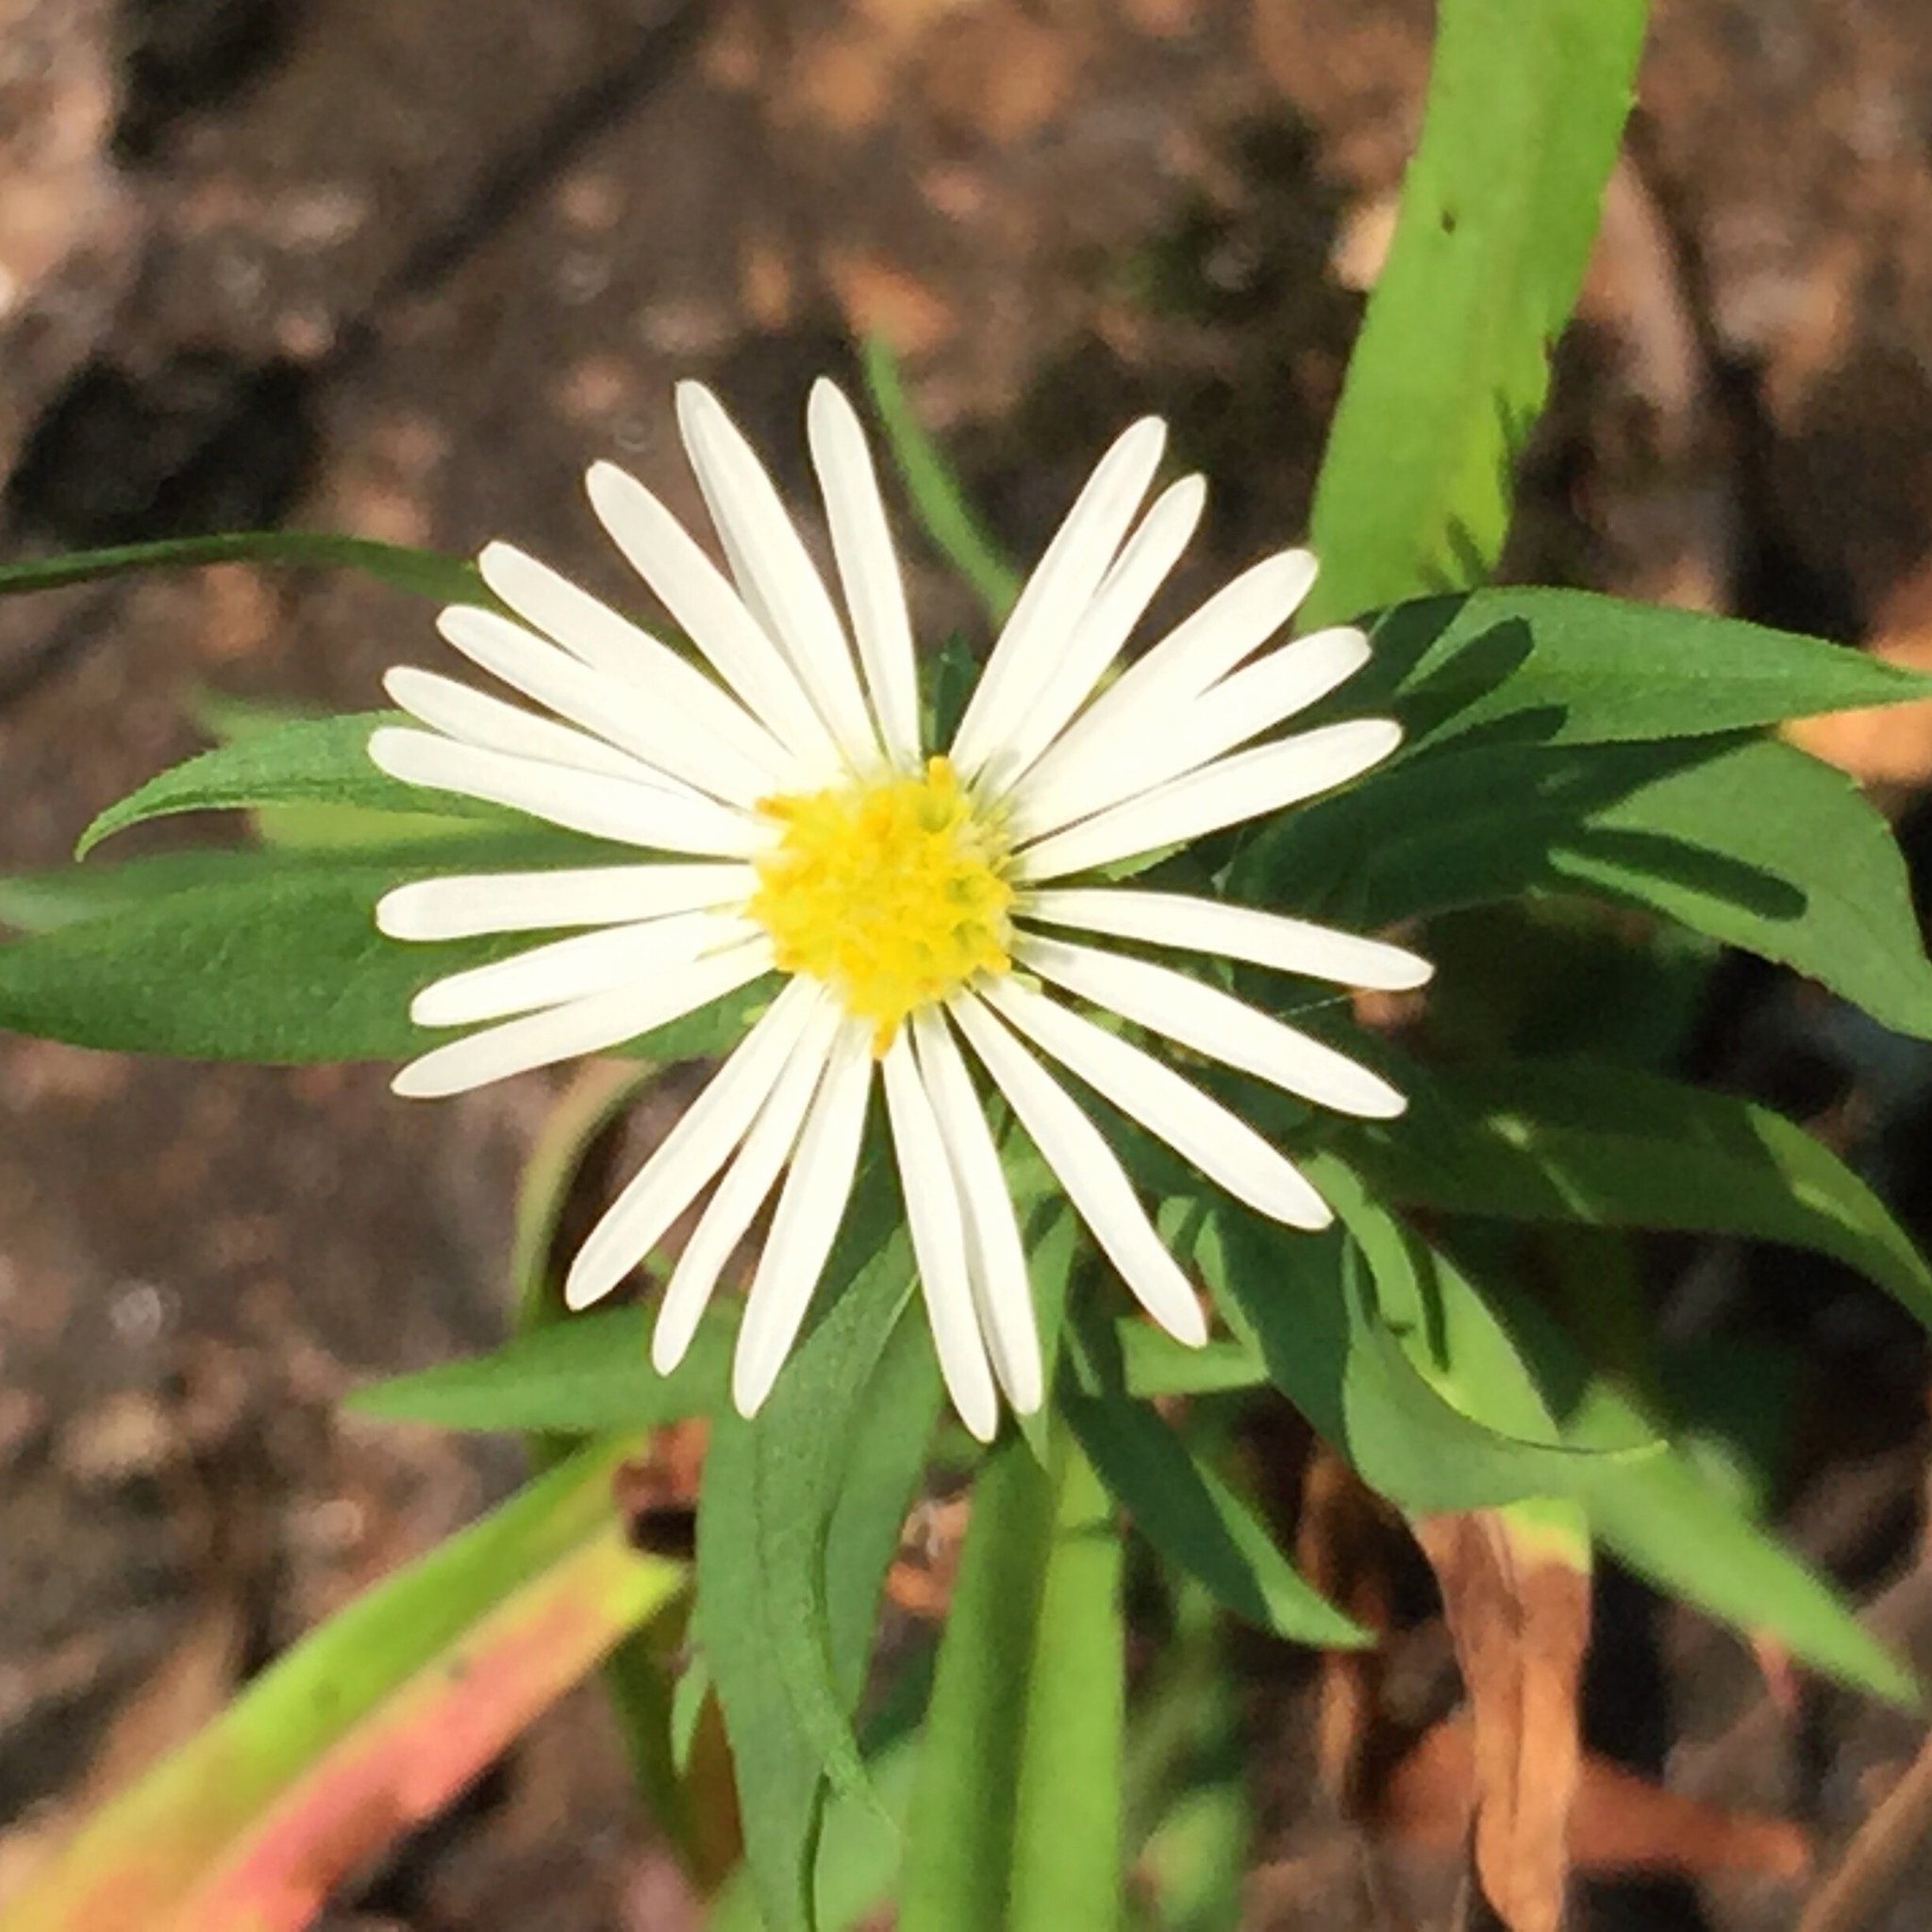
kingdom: Plantae
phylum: Tracheophyta
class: Magnoliopsida
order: Asterales
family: Asteraceae
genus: Symphyotrichum
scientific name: Symphyotrichum boreale
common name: Northern bog aster
